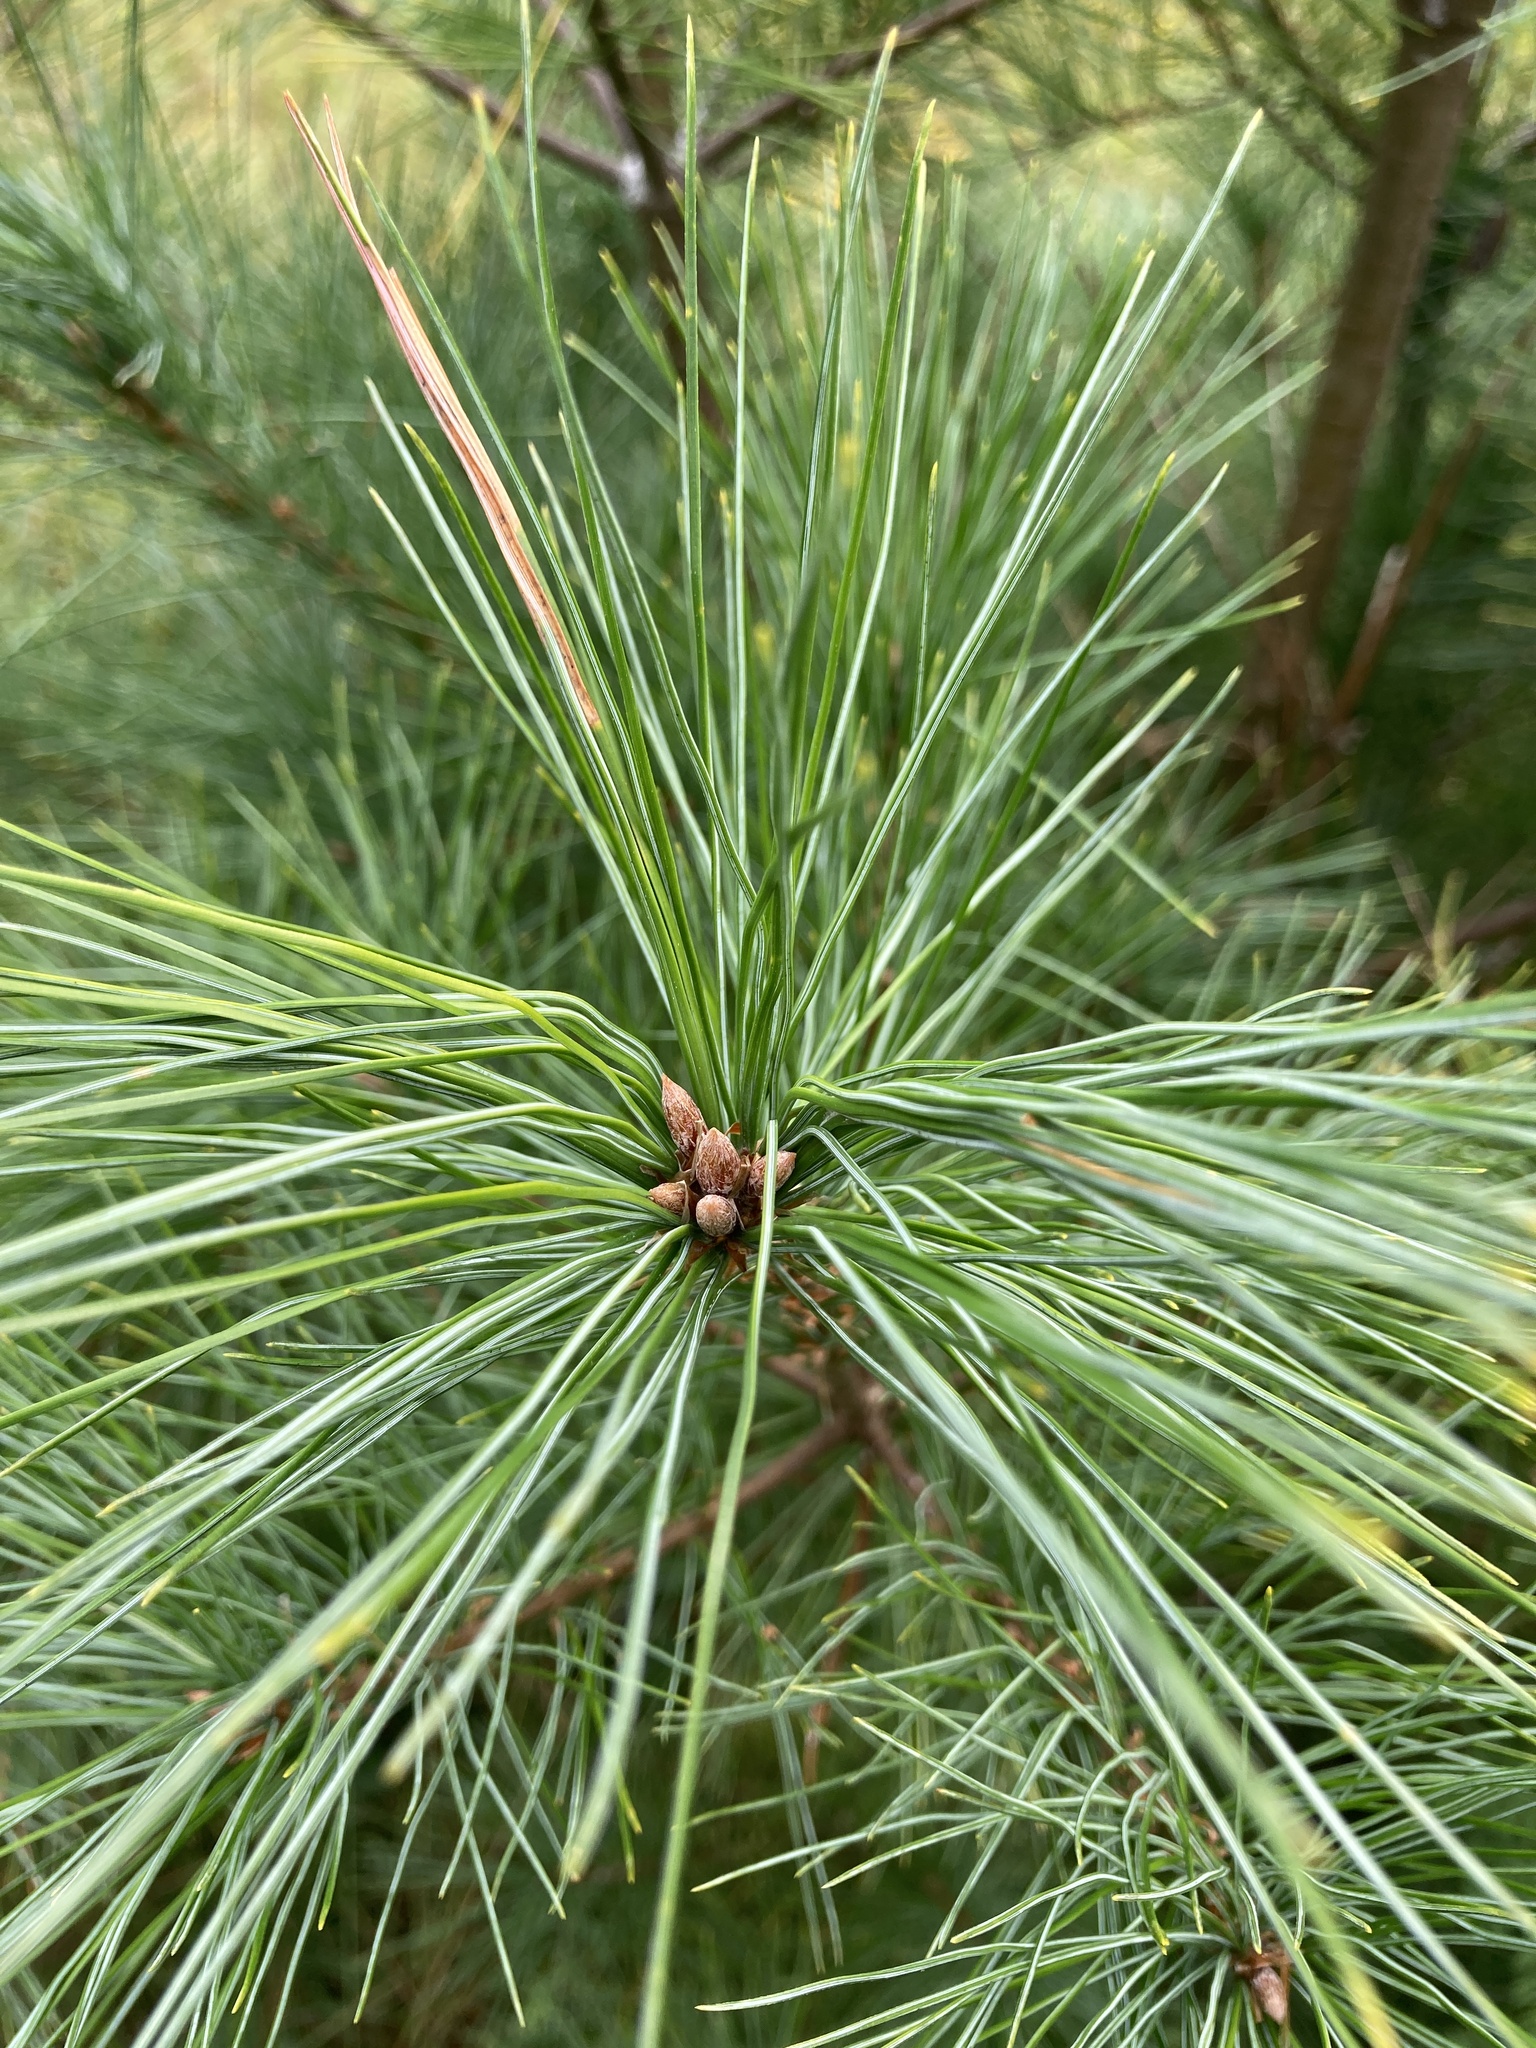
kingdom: Plantae
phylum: Tracheophyta
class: Pinopsida
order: Pinales
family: Pinaceae
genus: Pinus
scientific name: Pinus strobus
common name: Weymouth pine
